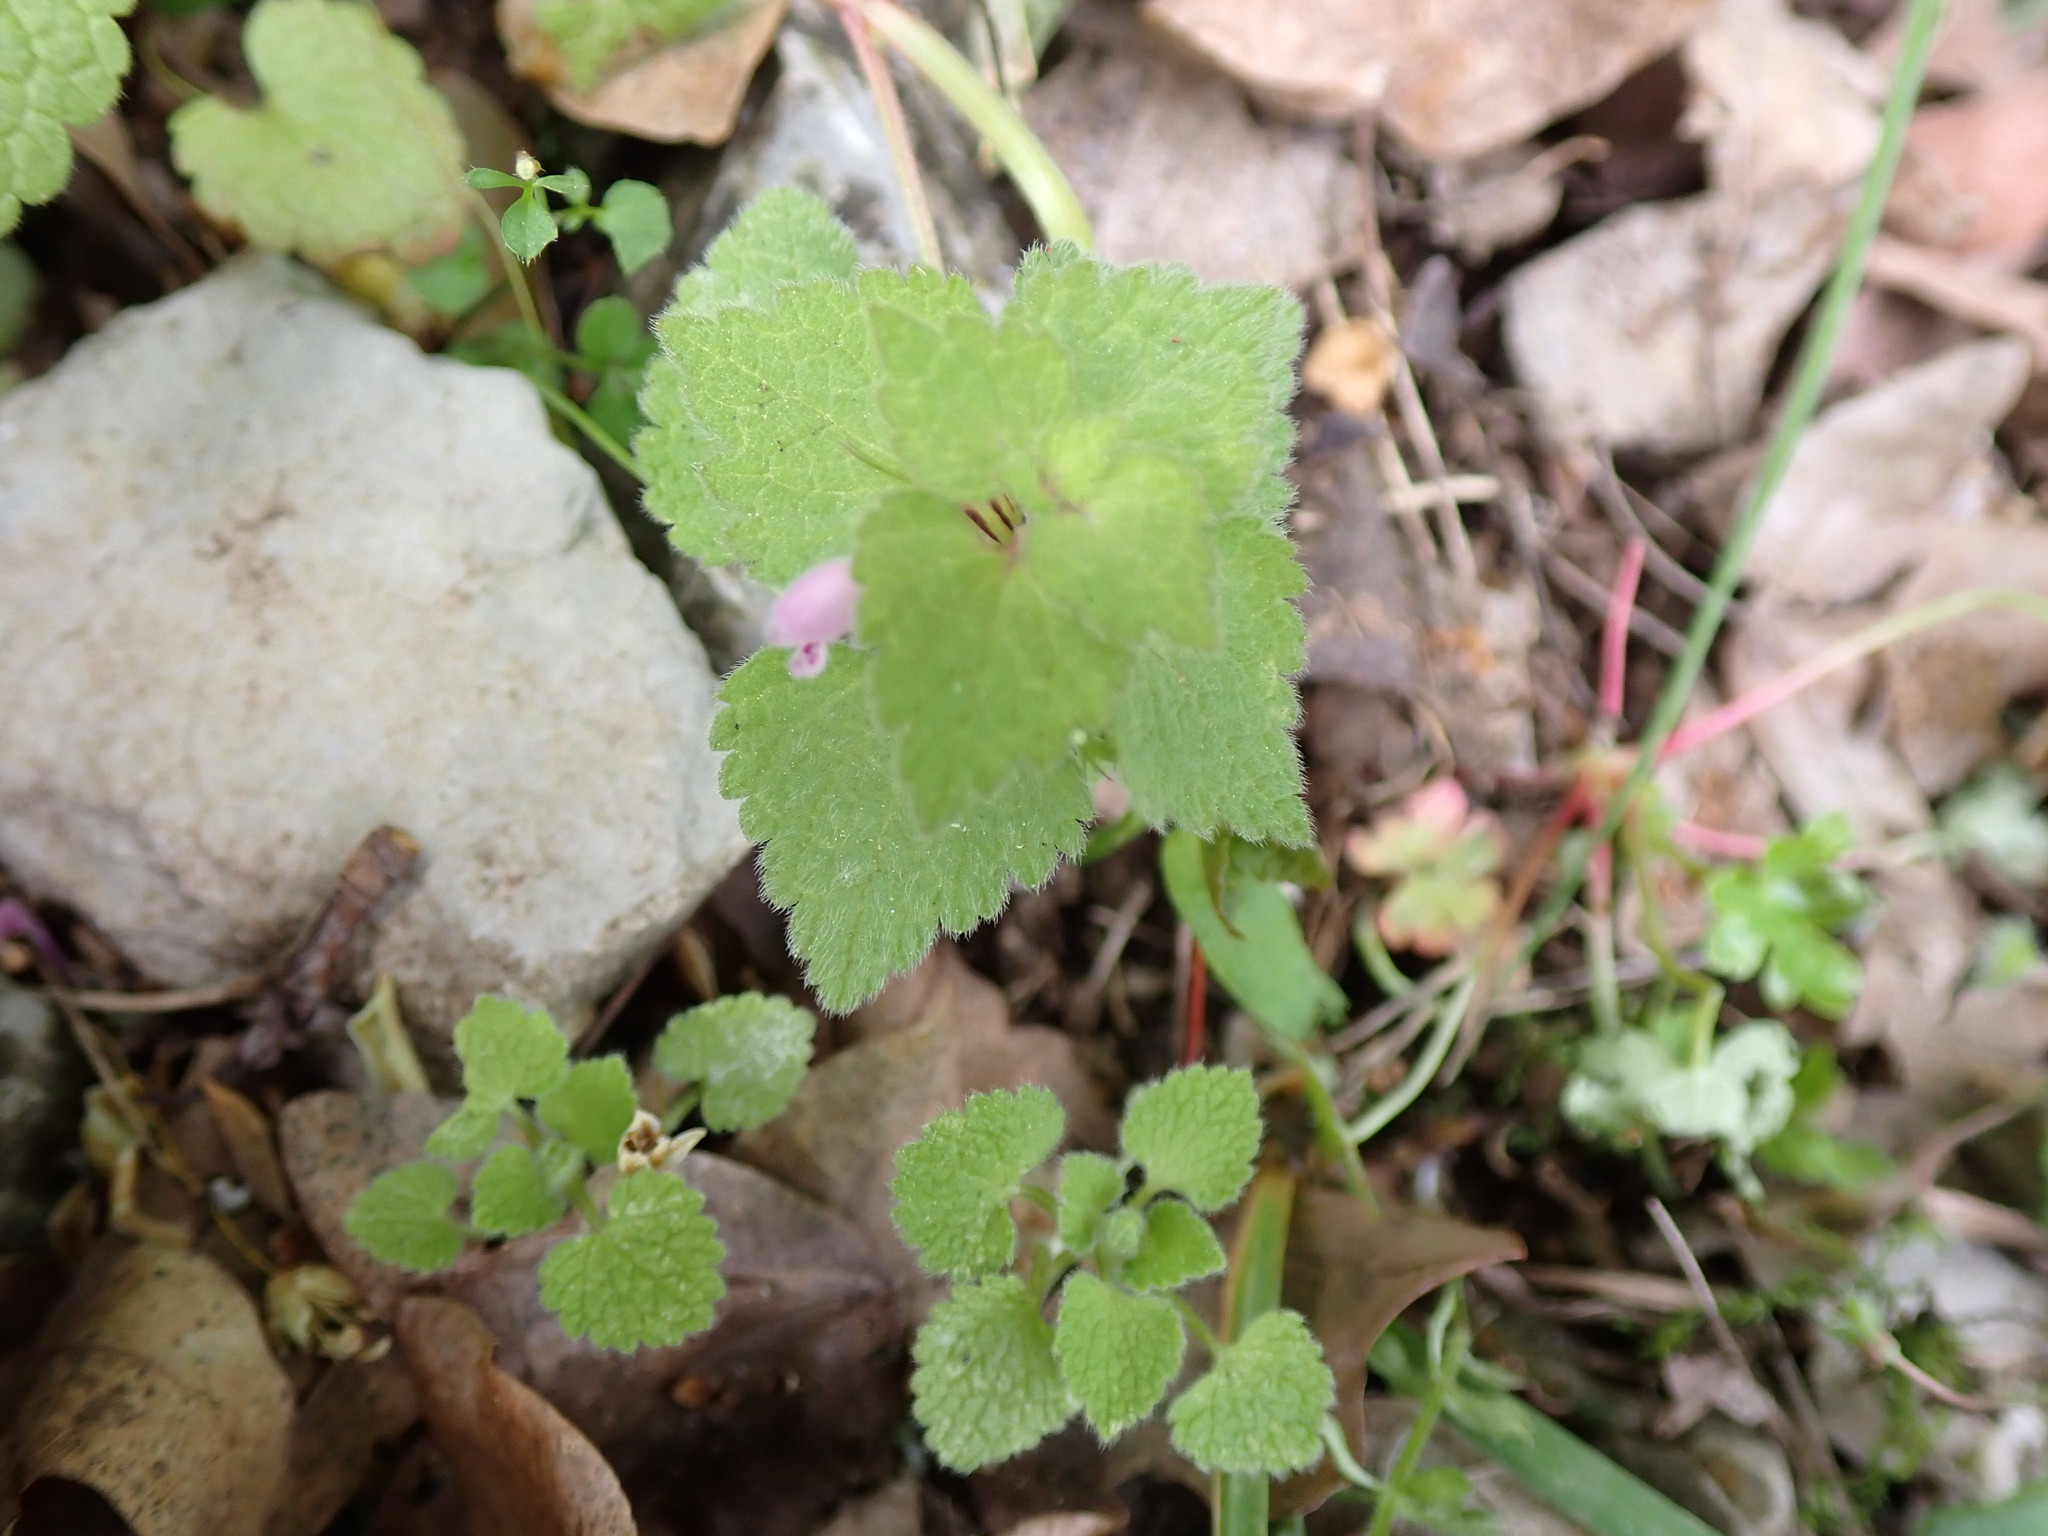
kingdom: Plantae
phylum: Tracheophyta
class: Magnoliopsida
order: Lamiales
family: Lamiaceae
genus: Lamium
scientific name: Lamium purpureum
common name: Red dead-nettle
